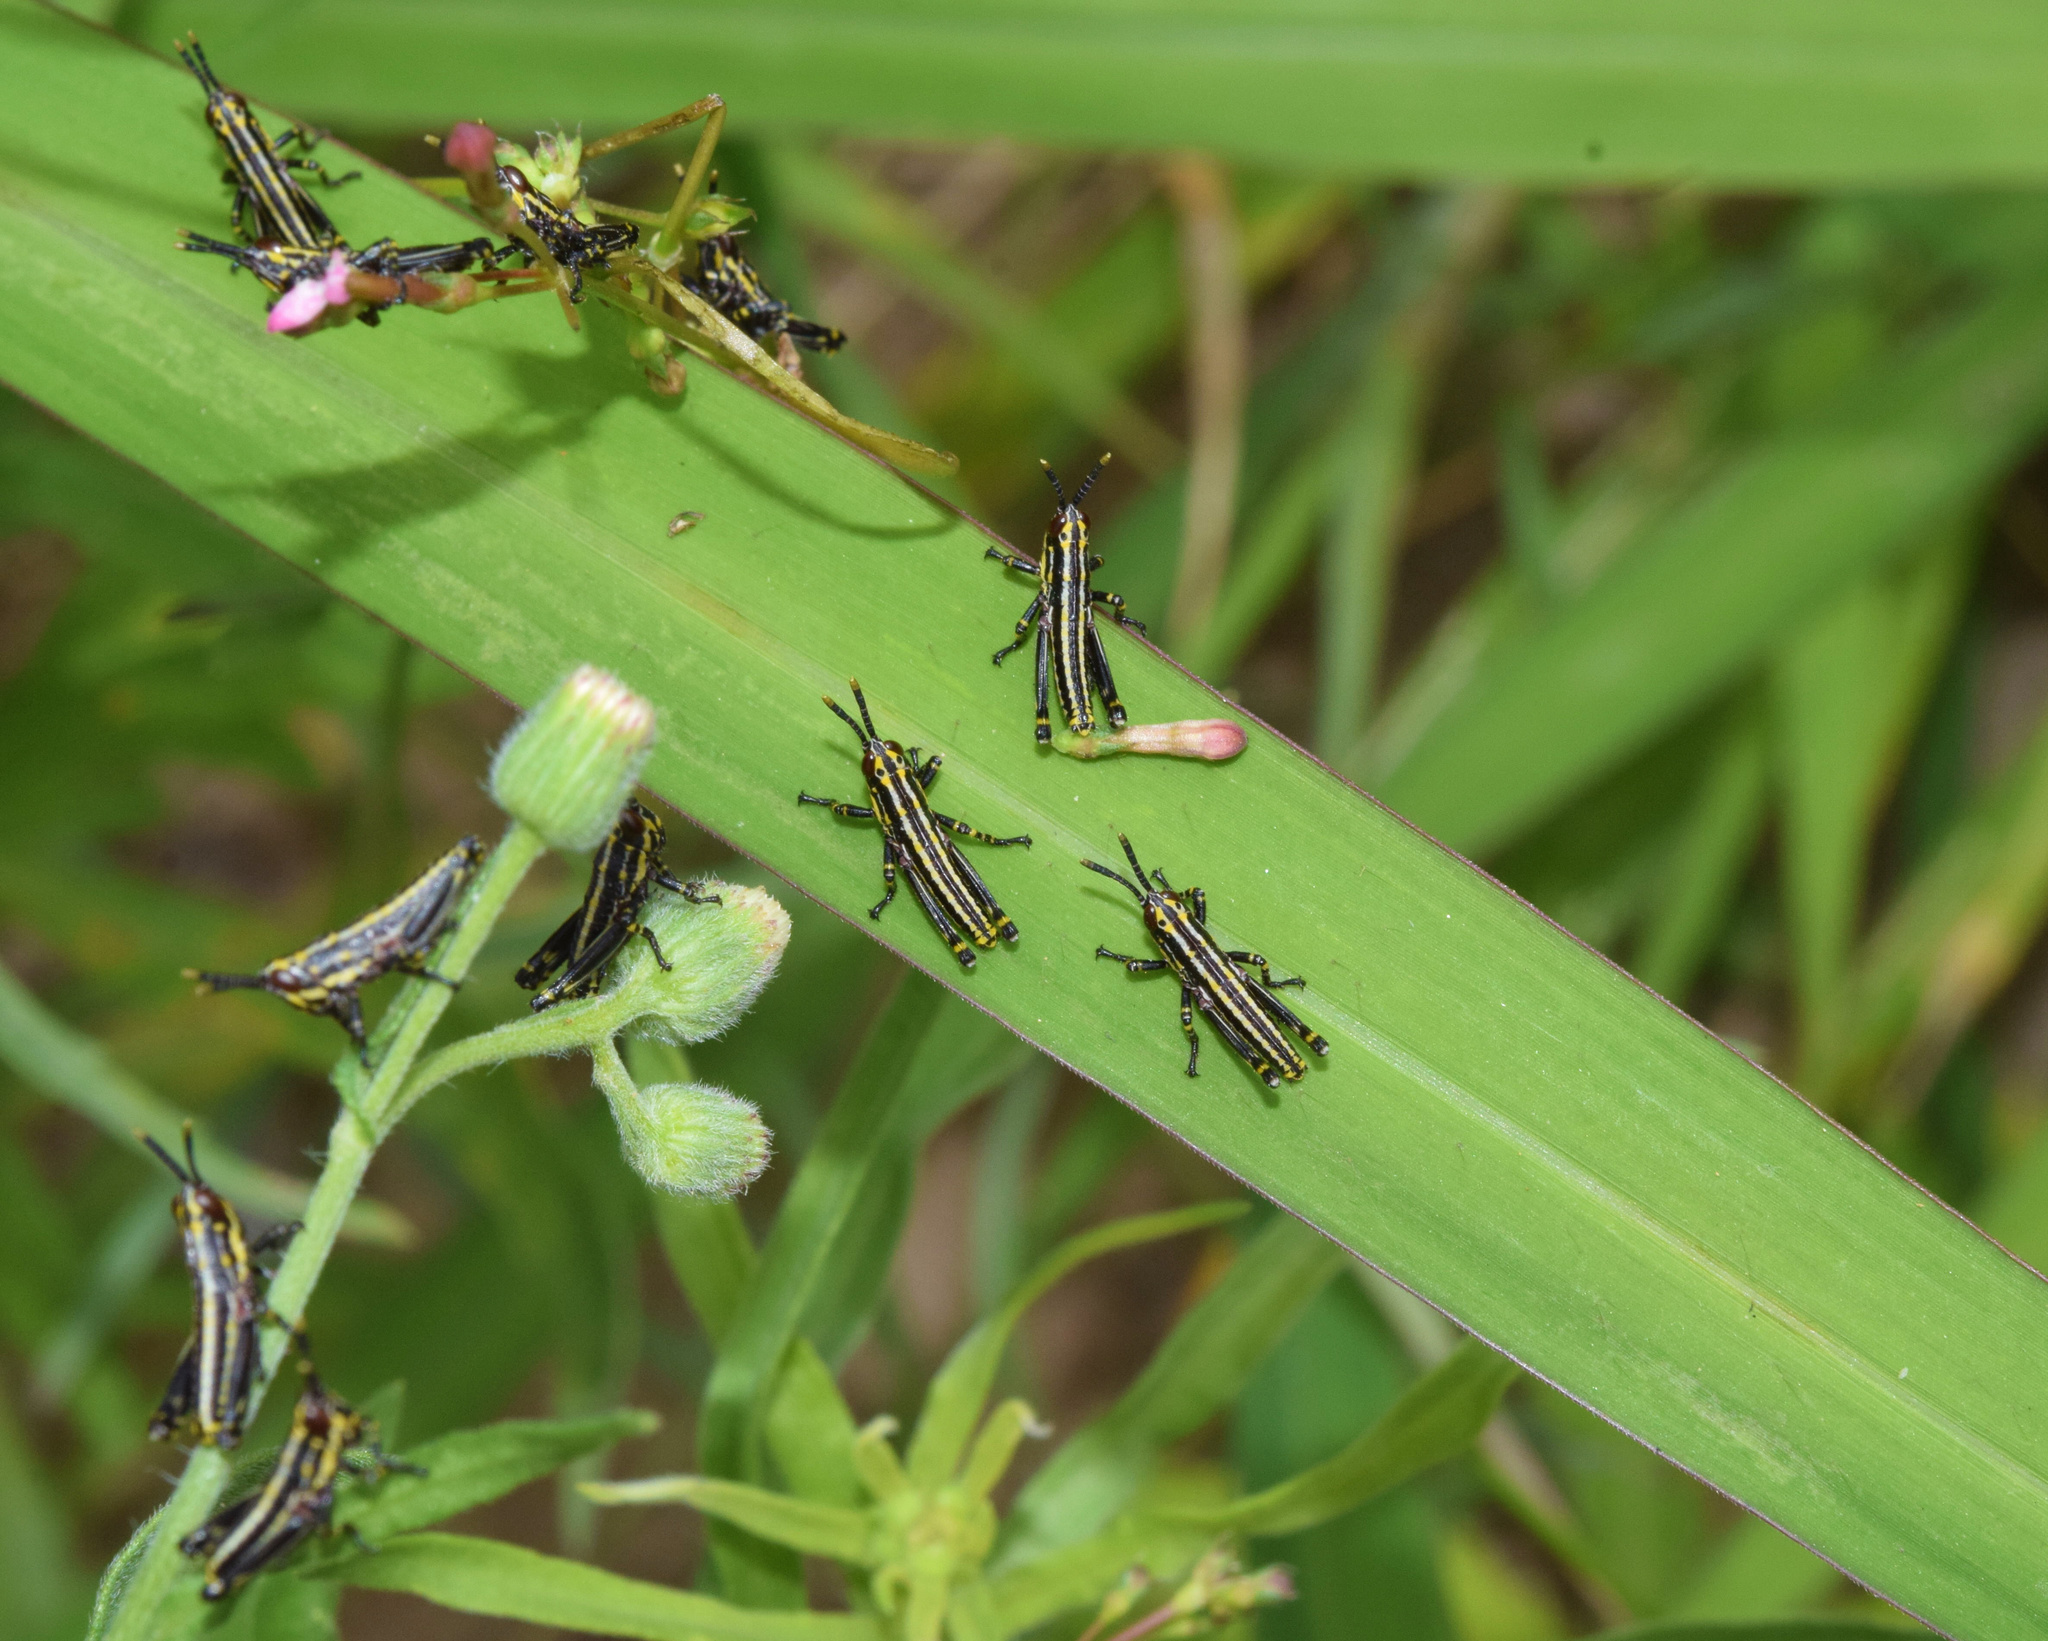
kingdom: Animalia
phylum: Arthropoda
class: Insecta
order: Orthoptera
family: Pyrgomorphidae
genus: Zonocerus
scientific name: Zonocerus elegans
